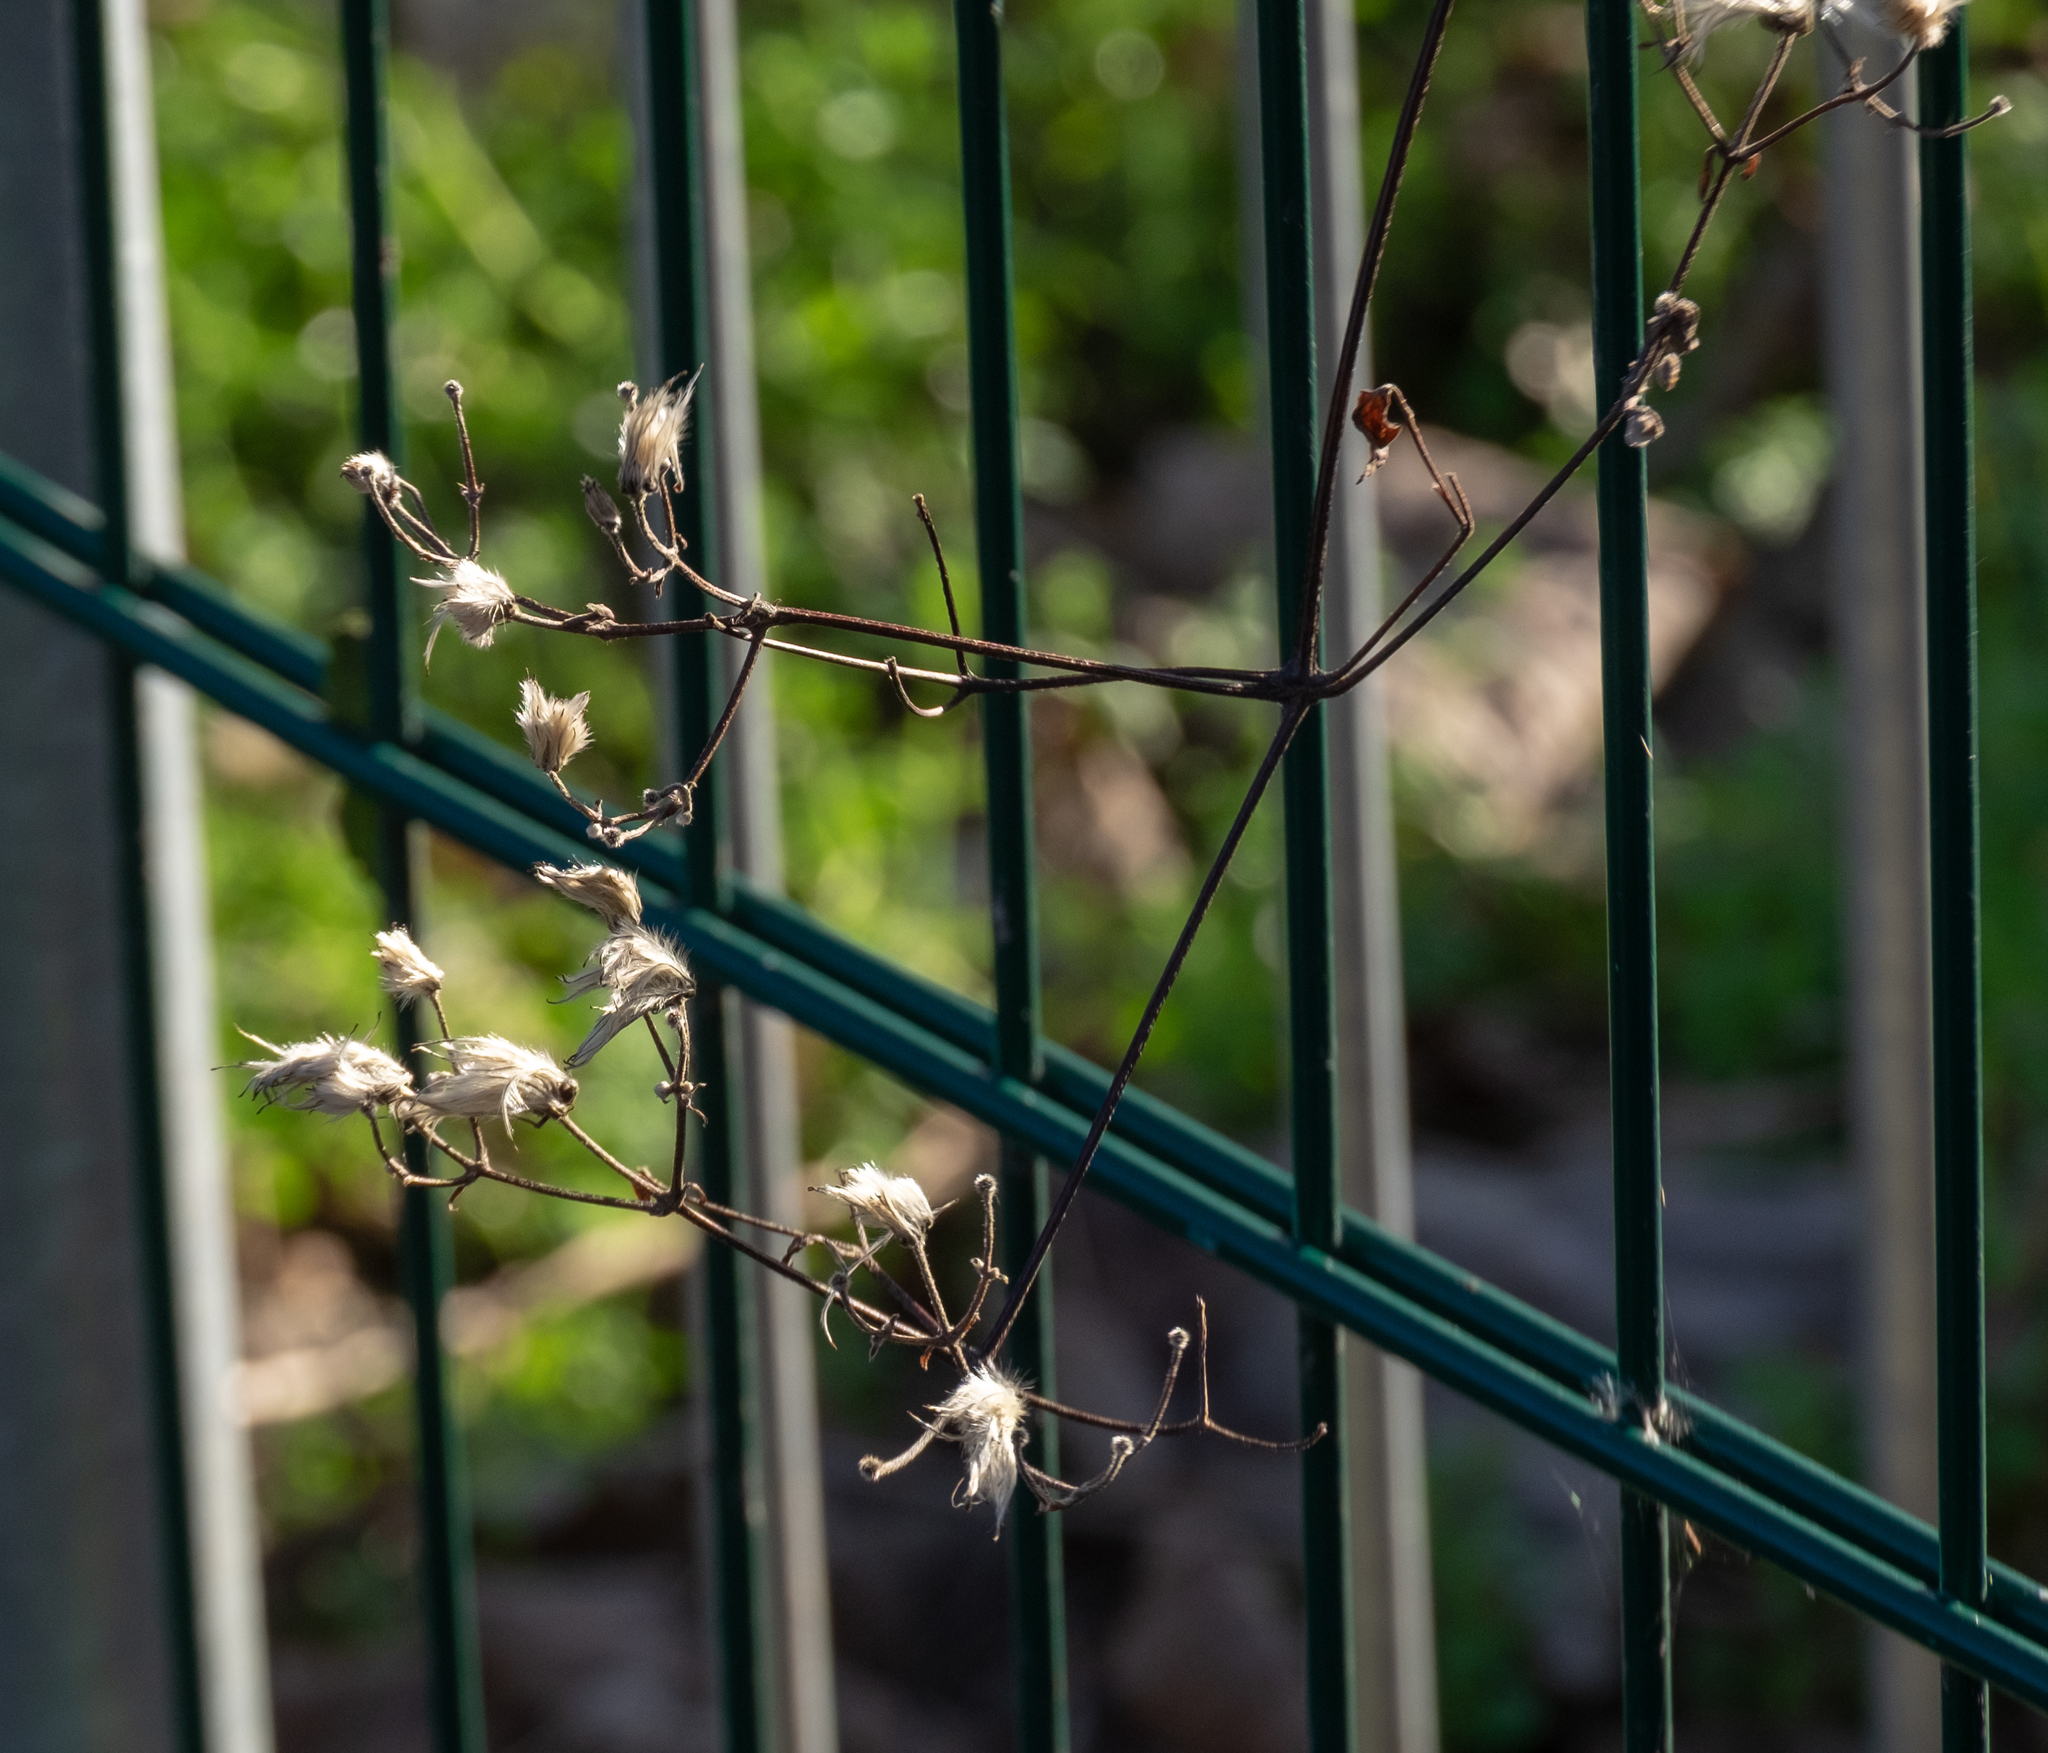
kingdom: Plantae
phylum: Tracheophyta
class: Magnoliopsida
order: Ranunculales
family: Ranunculaceae
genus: Clematis
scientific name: Clematis vitalba
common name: Evergreen clematis
